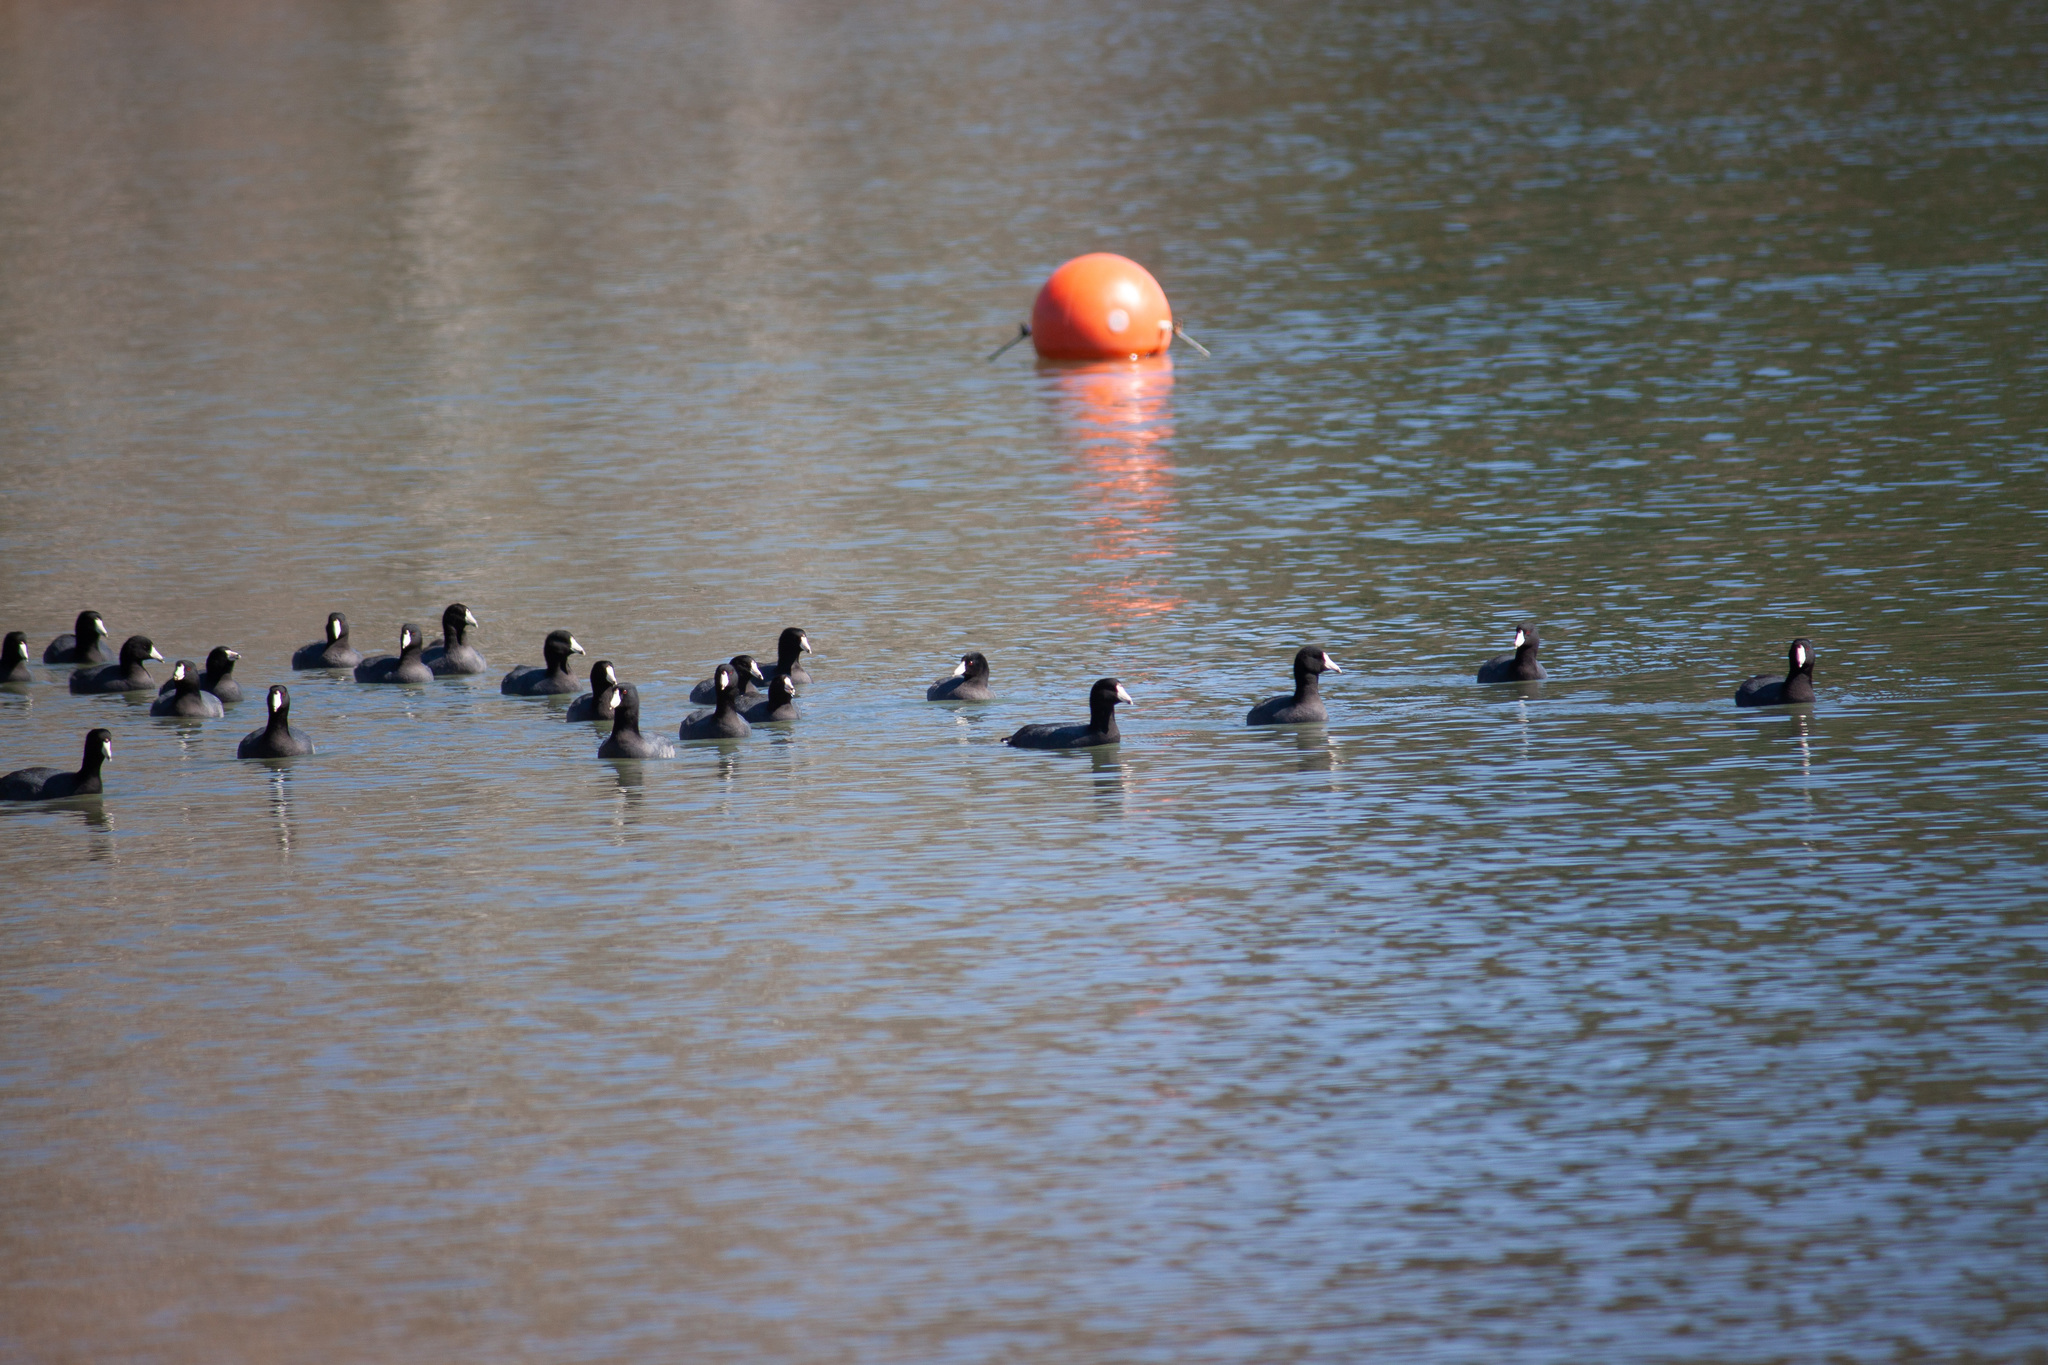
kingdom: Animalia
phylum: Chordata
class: Aves
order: Gruiformes
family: Rallidae
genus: Fulica
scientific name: Fulica americana
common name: American coot
